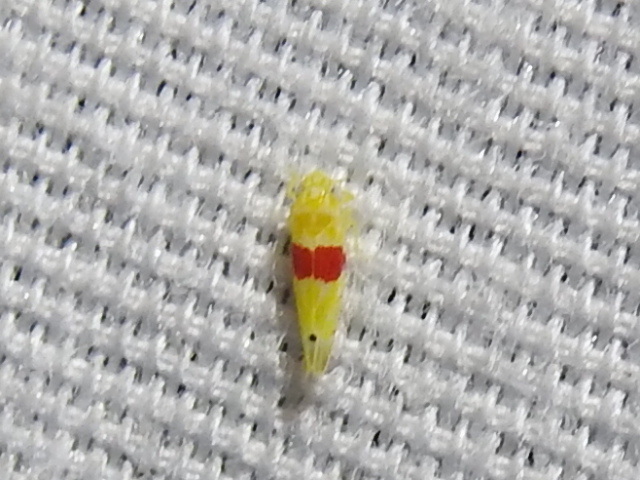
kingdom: Animalia
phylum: Arthropoda
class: Insecta
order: Hemiptera
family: Cicadellidae
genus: Eratoneura
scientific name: Eratoneura era
